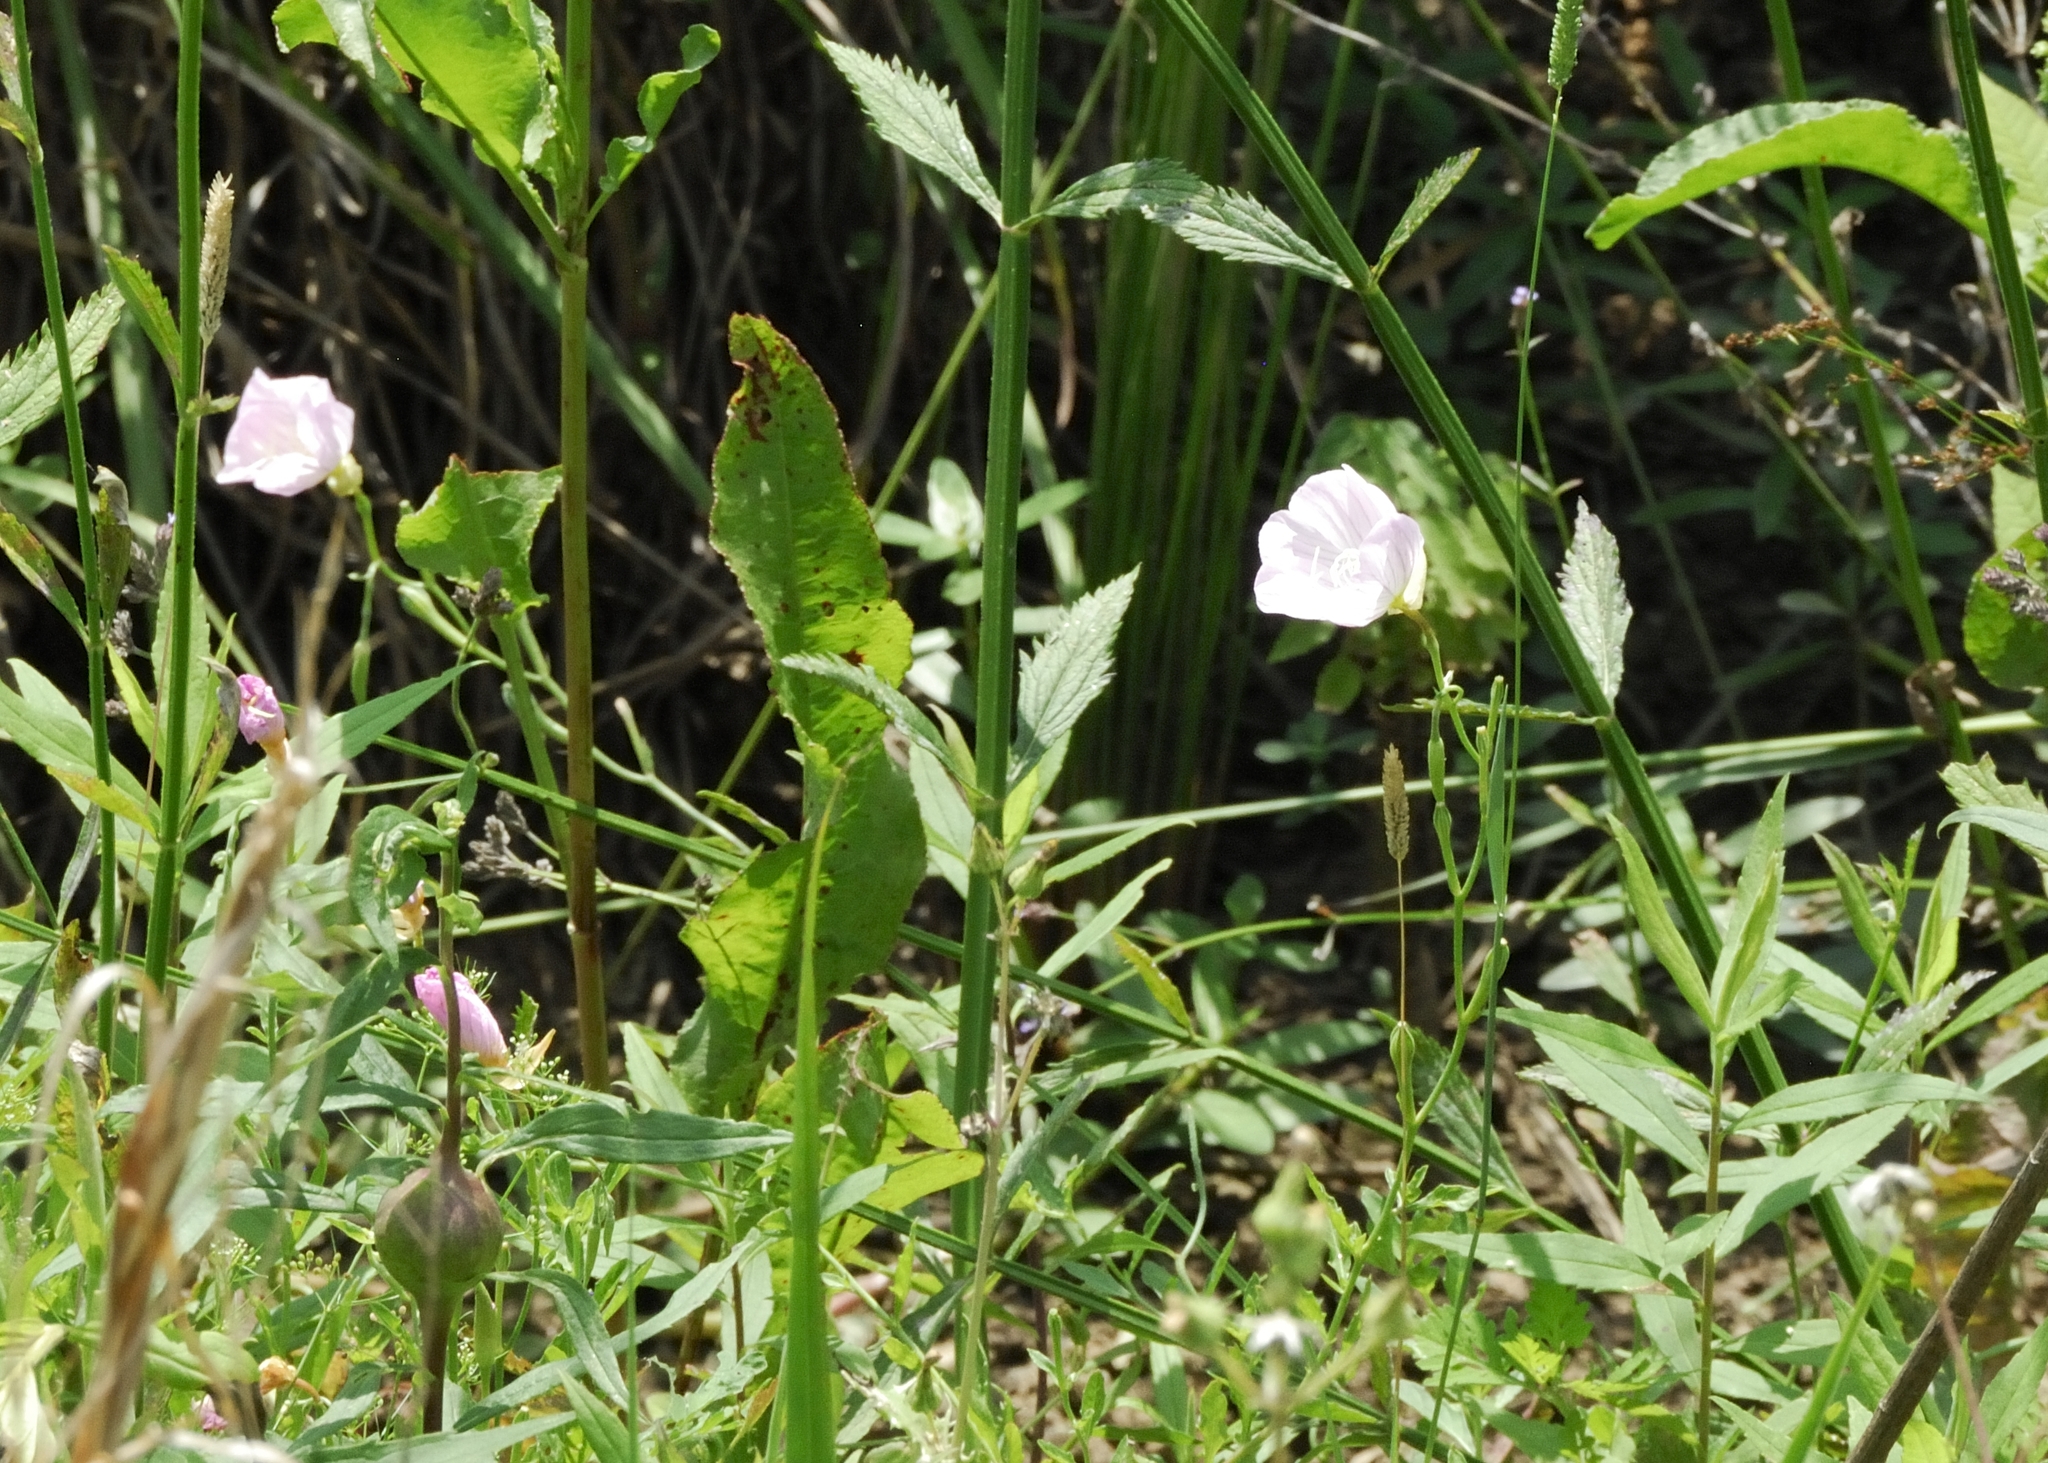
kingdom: Plantae
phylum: Tracheophyta
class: Magnoliopsida
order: Myrtales
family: Onagraceae
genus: Oenothera
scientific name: Oenothera speciosa
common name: White evening-primrose
